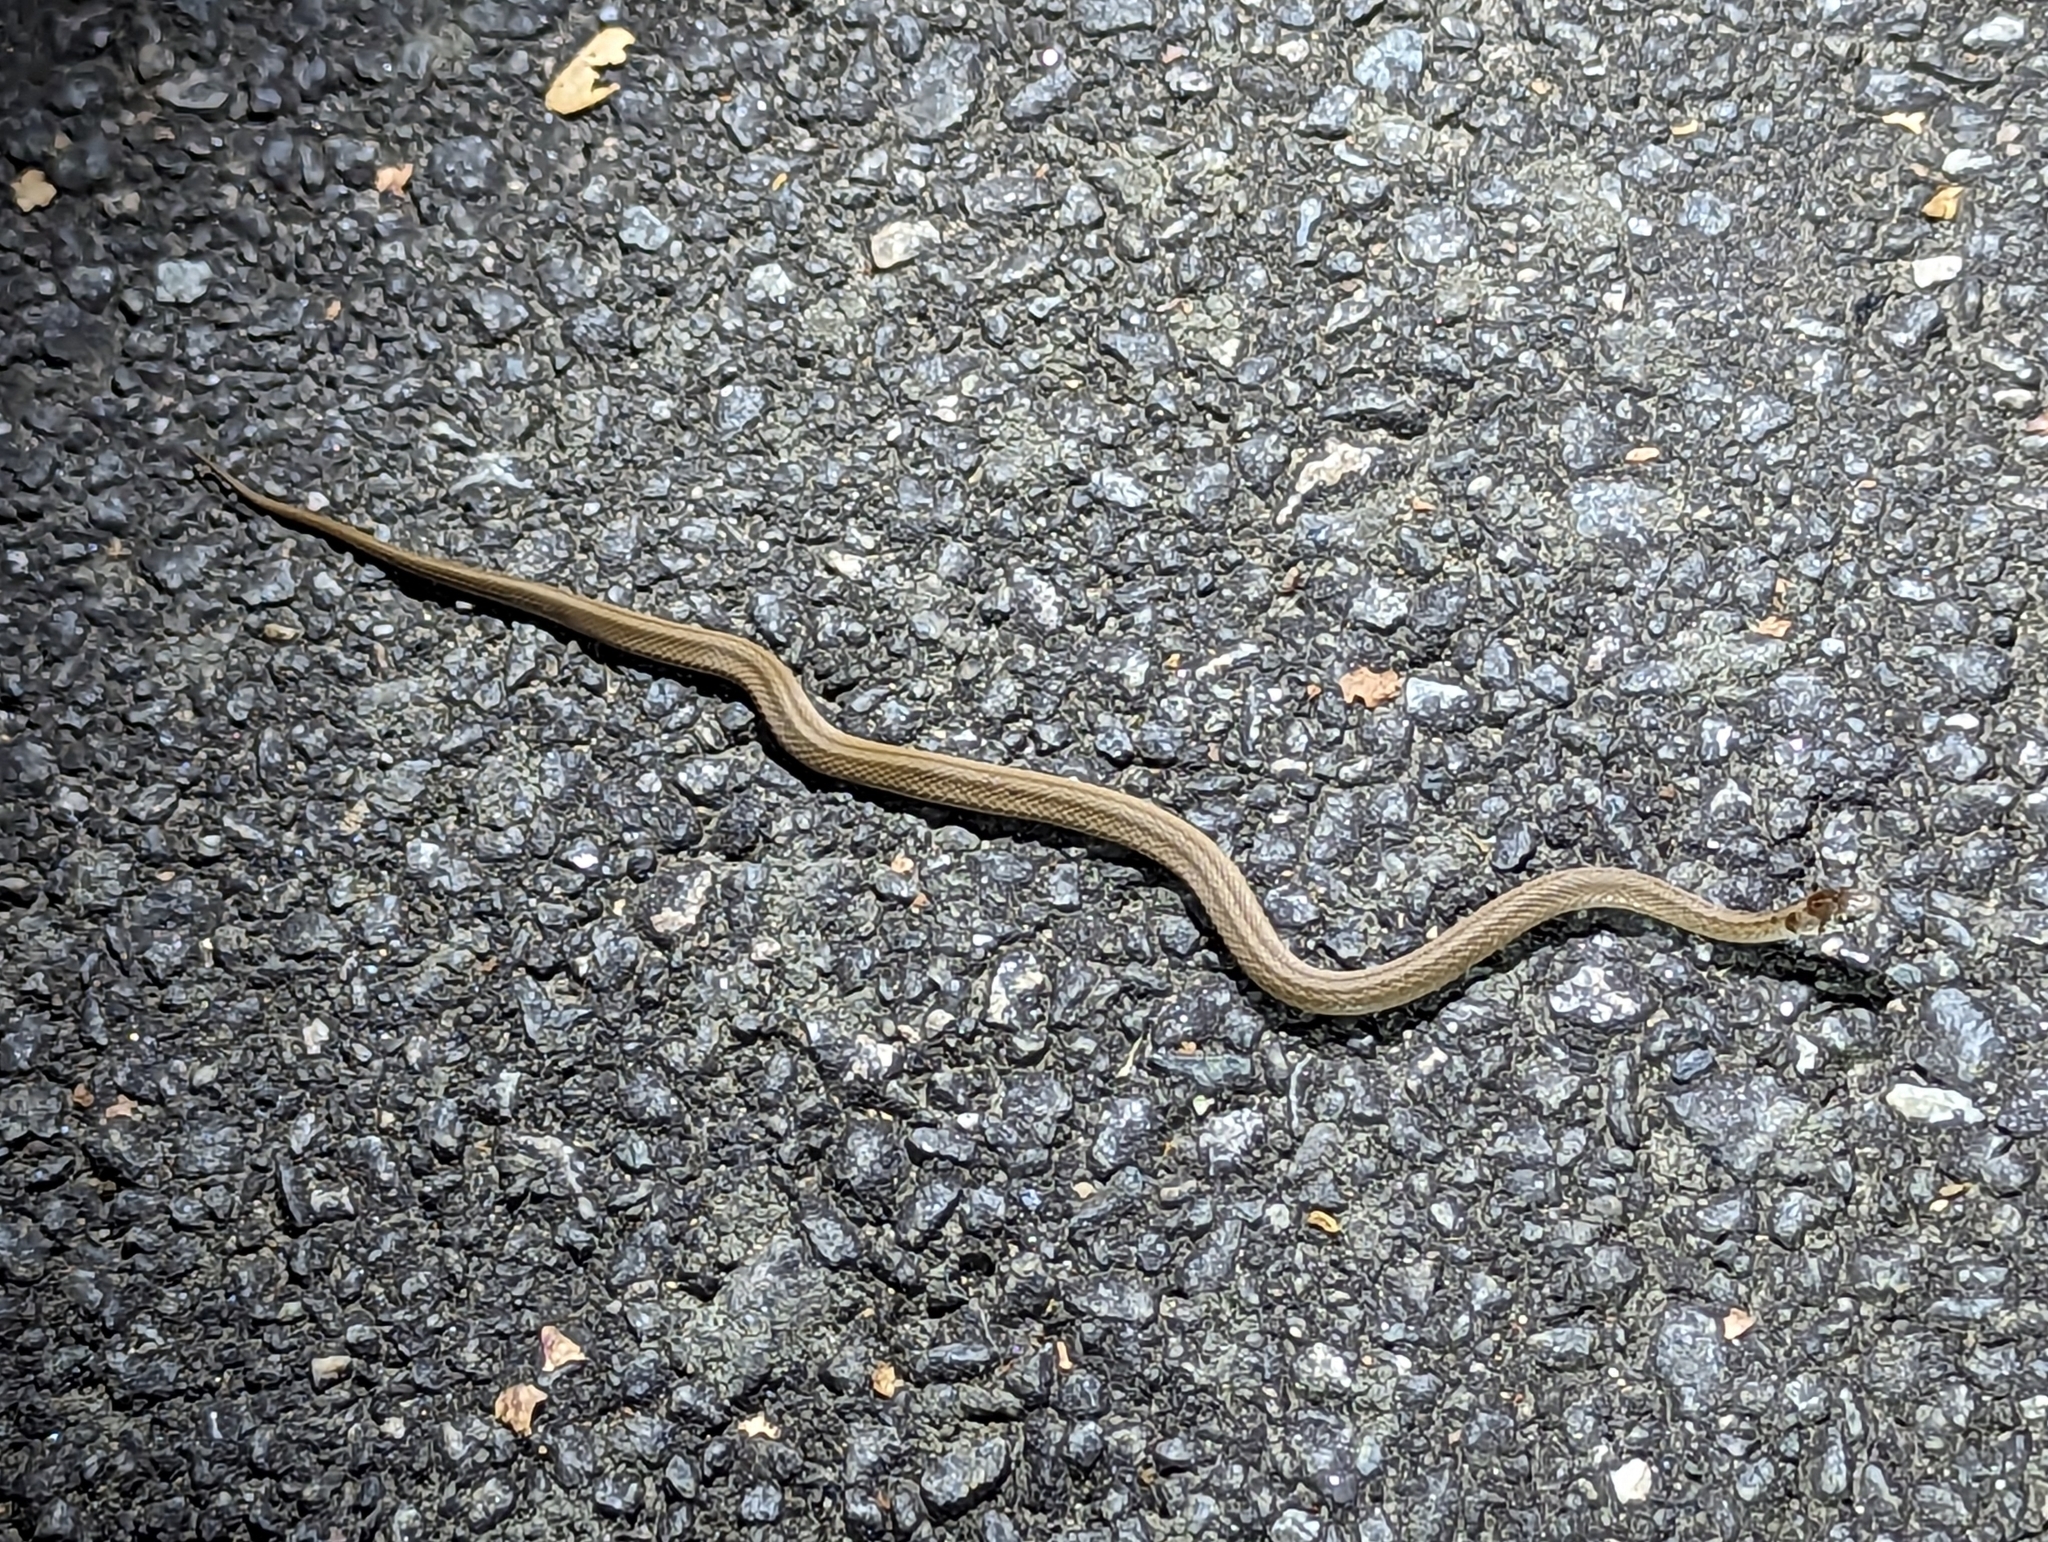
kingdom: Animalia
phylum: Chordata
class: Squamata
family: Colubridae
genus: Storeria
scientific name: Storeria dekayi
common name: (dekay’s) brown snake
